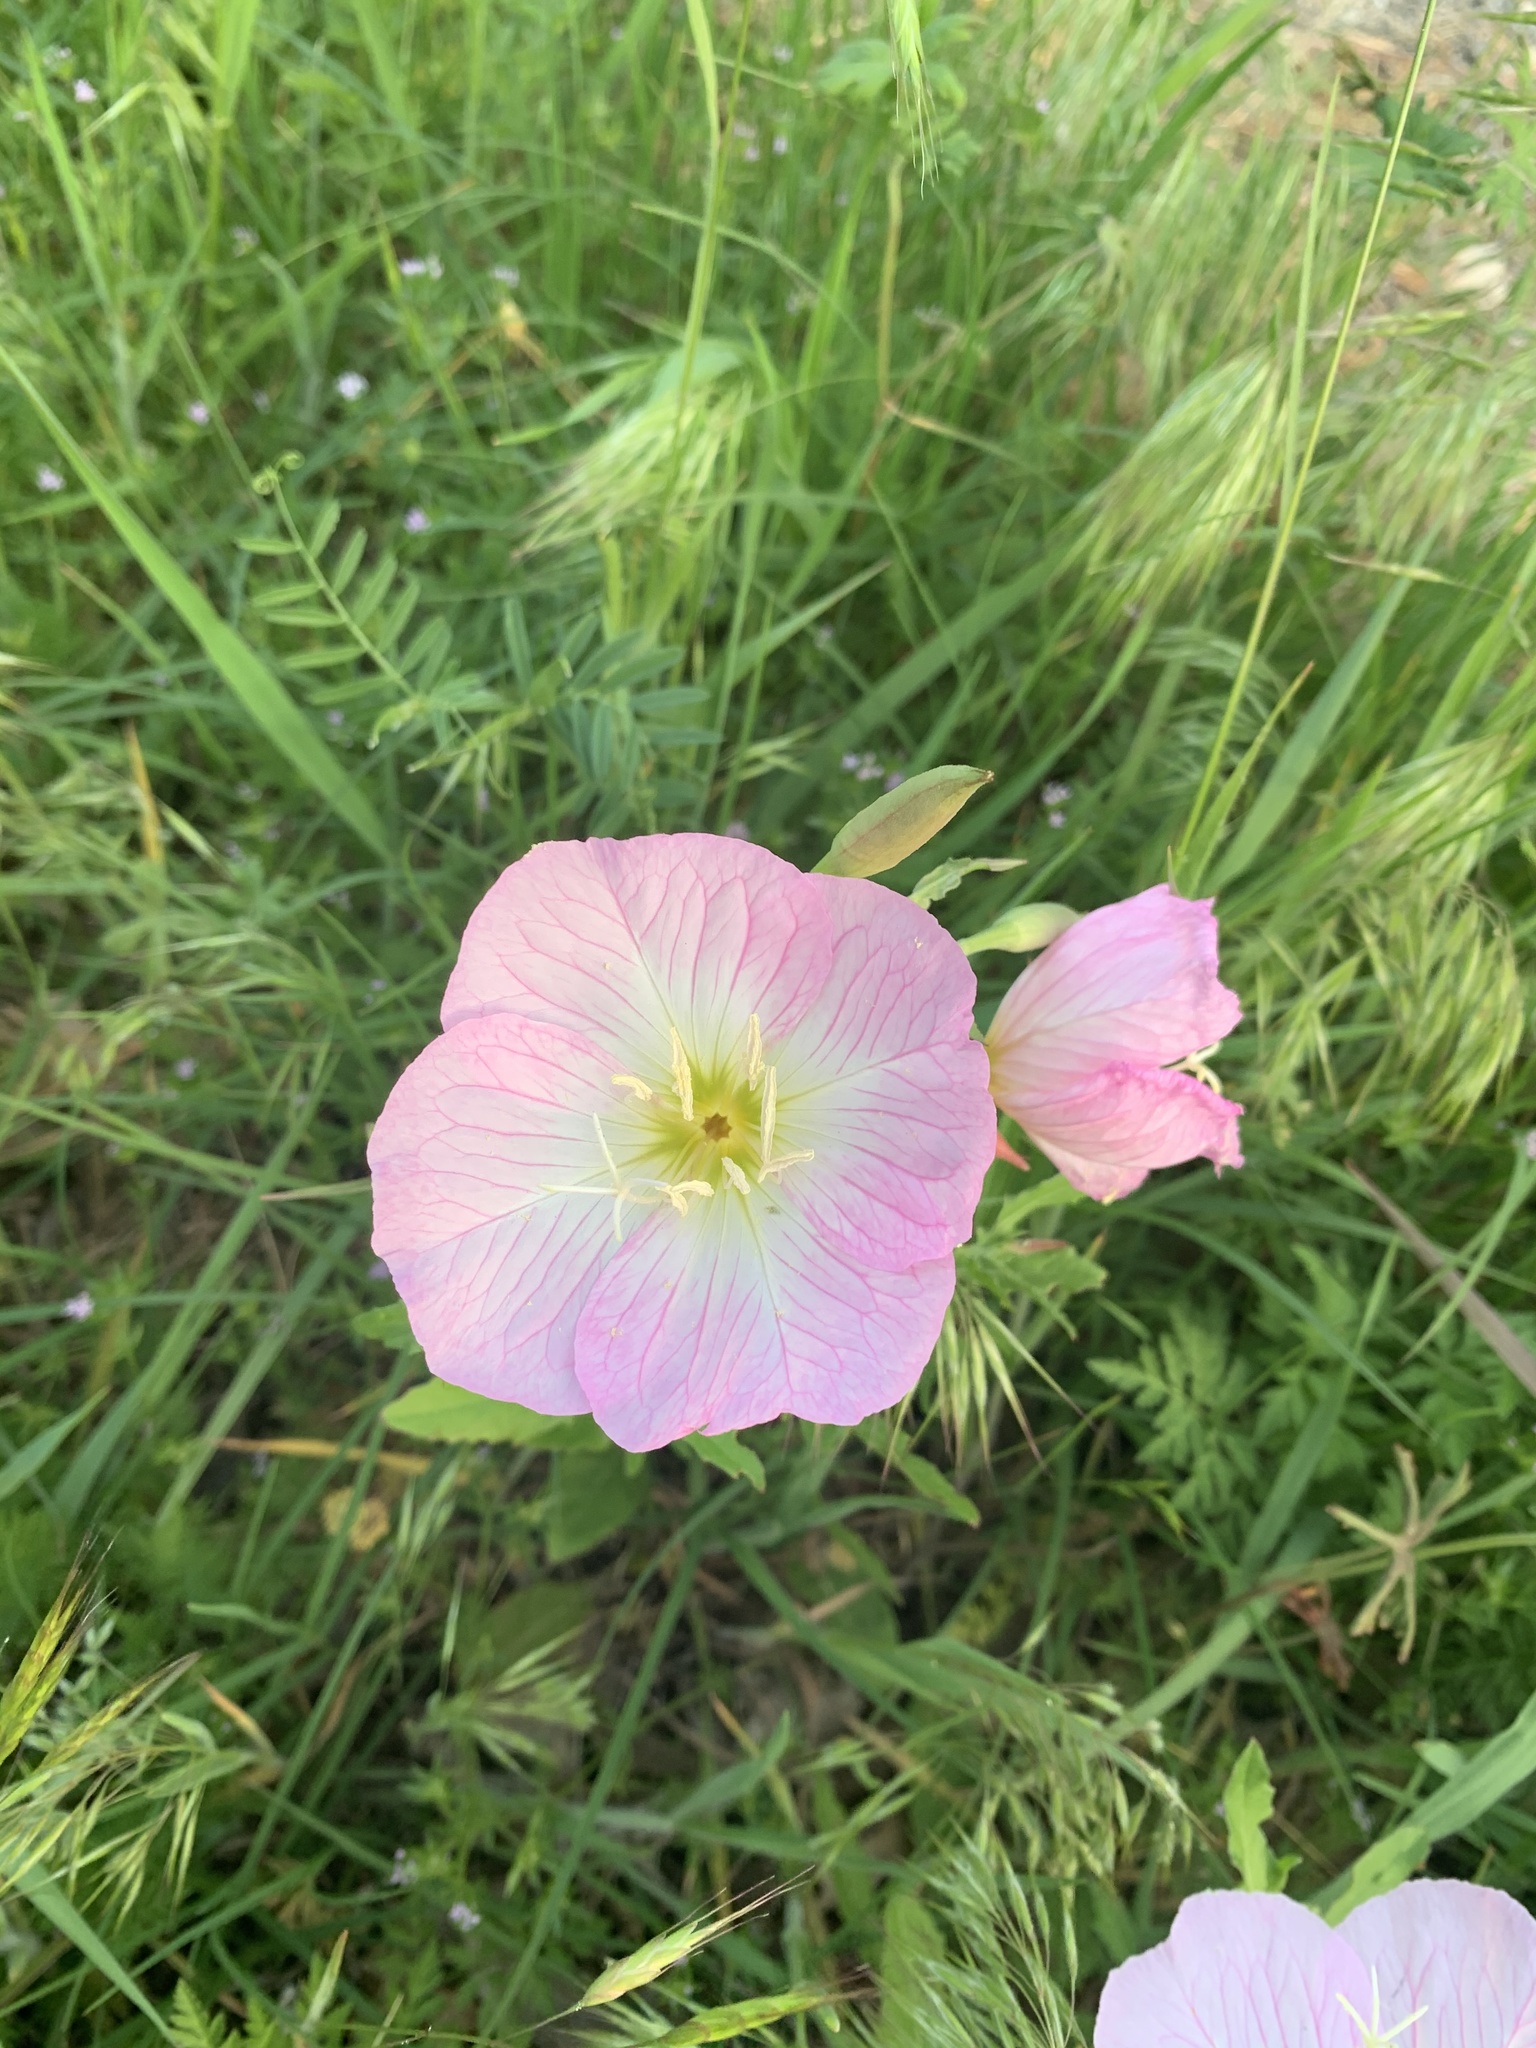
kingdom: Plantae
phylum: Tracheophyta
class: Magnoliopsida
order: Myrtales
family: Onagraceae
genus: Oenothera
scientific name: Oenothera speciosa
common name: White evening-primrose
